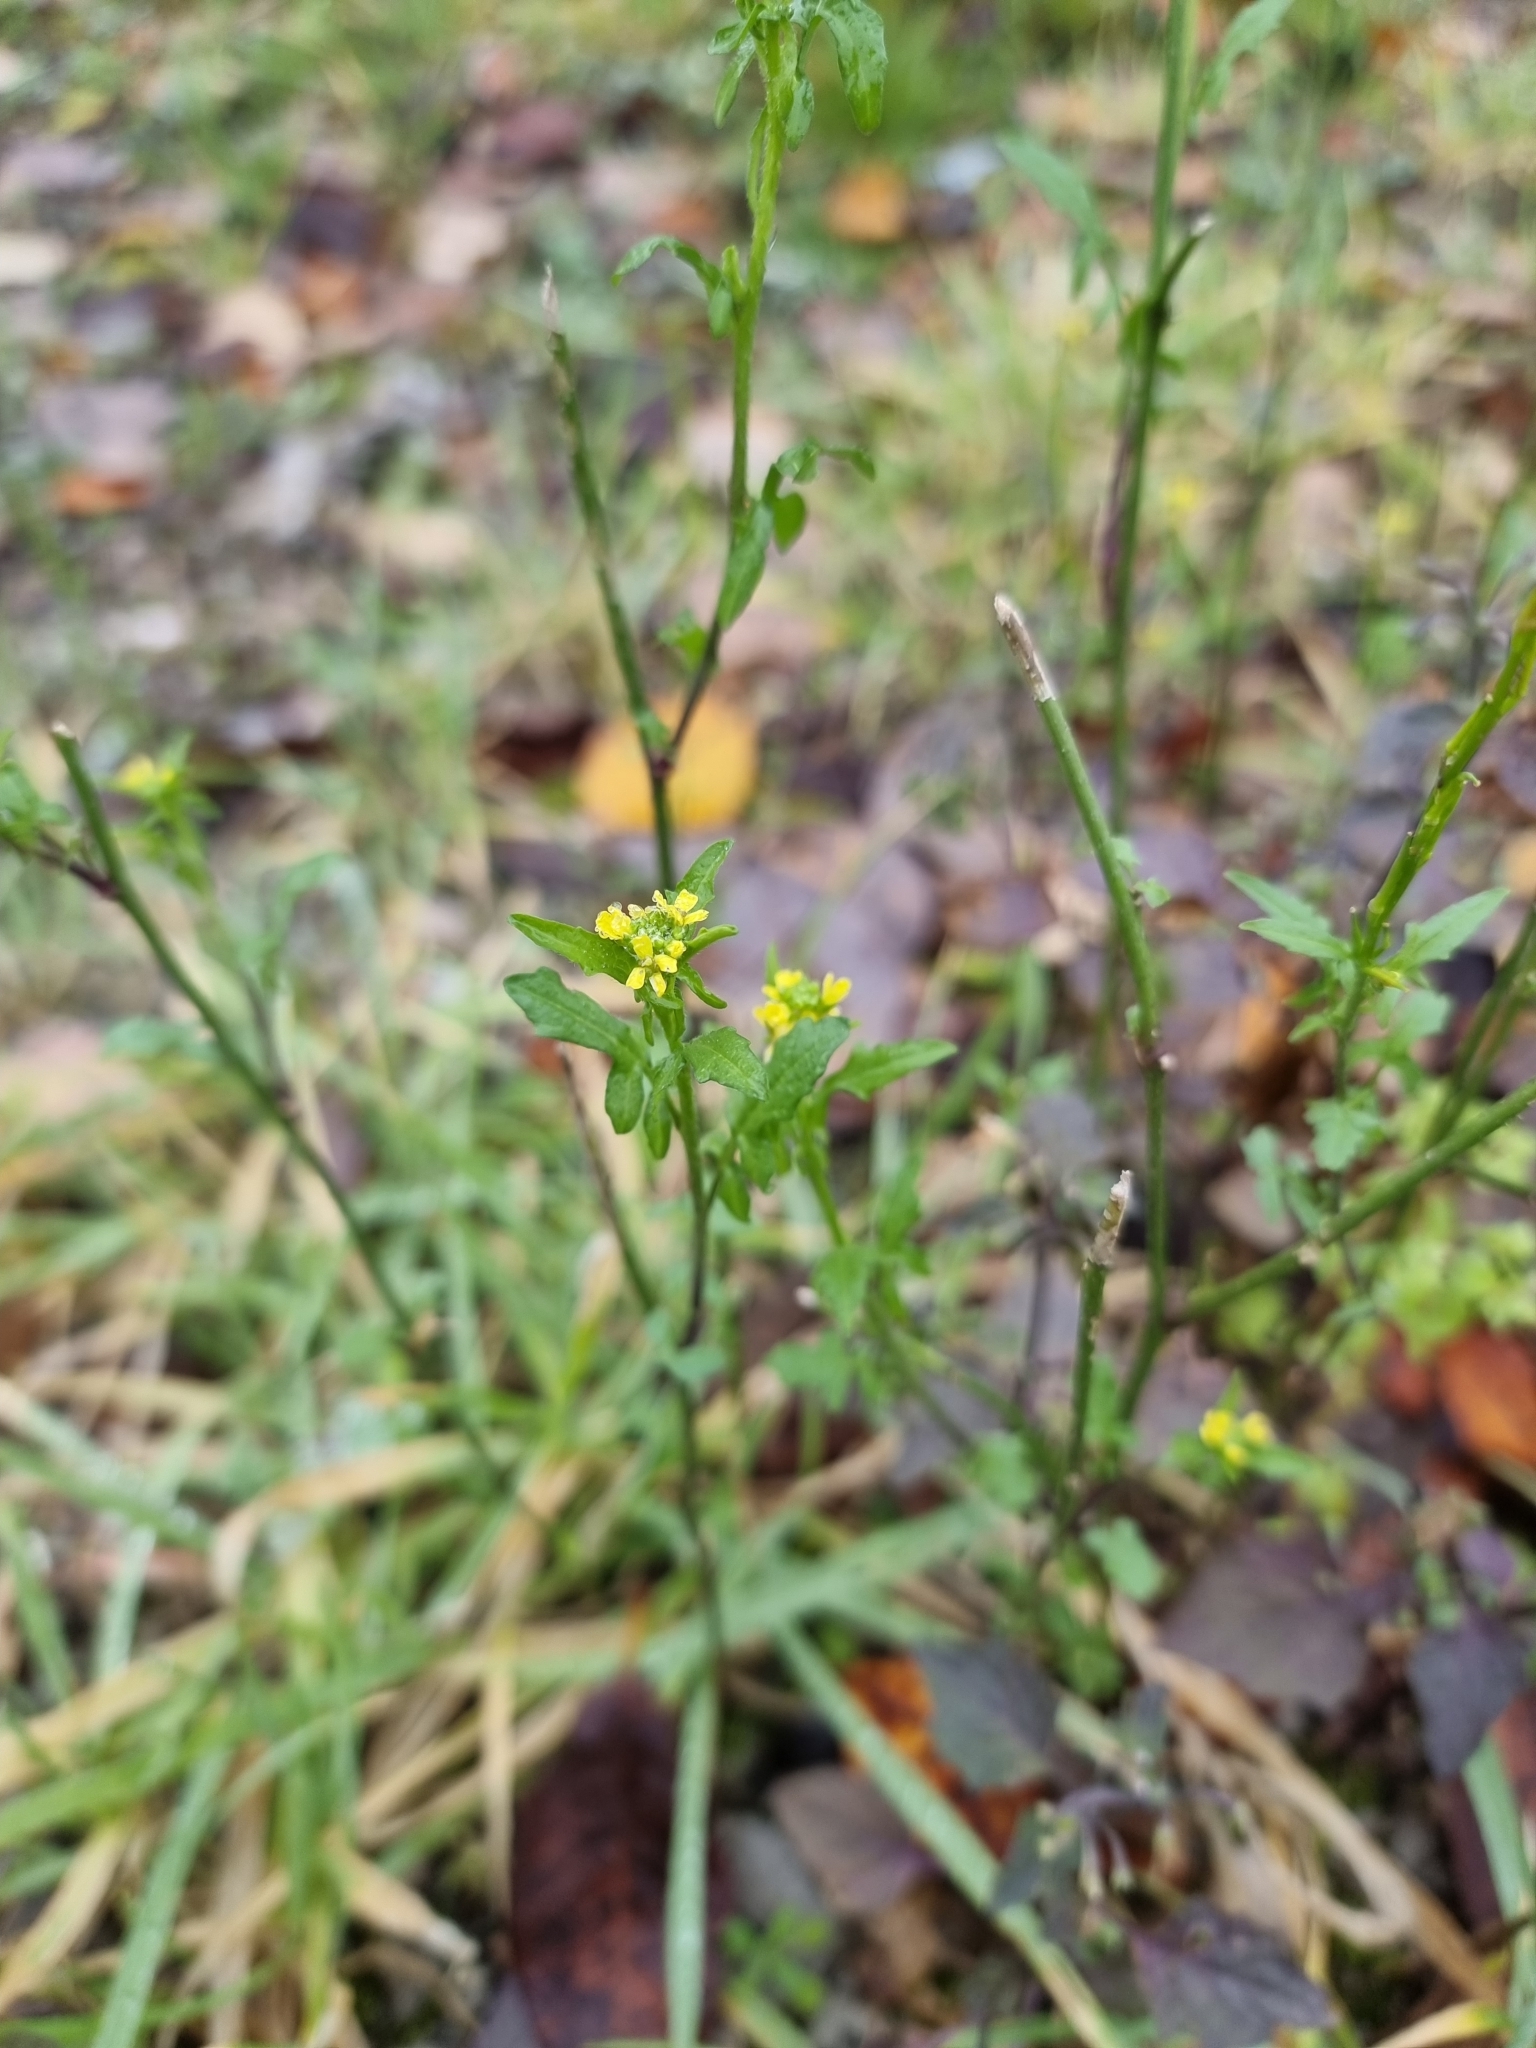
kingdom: Plantae
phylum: Tracheophyta
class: Magnoliopsida
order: Brassicales
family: Brassicaceae
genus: Sisymbrium
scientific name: Sisymbrium officinale
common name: Hedge mustard
